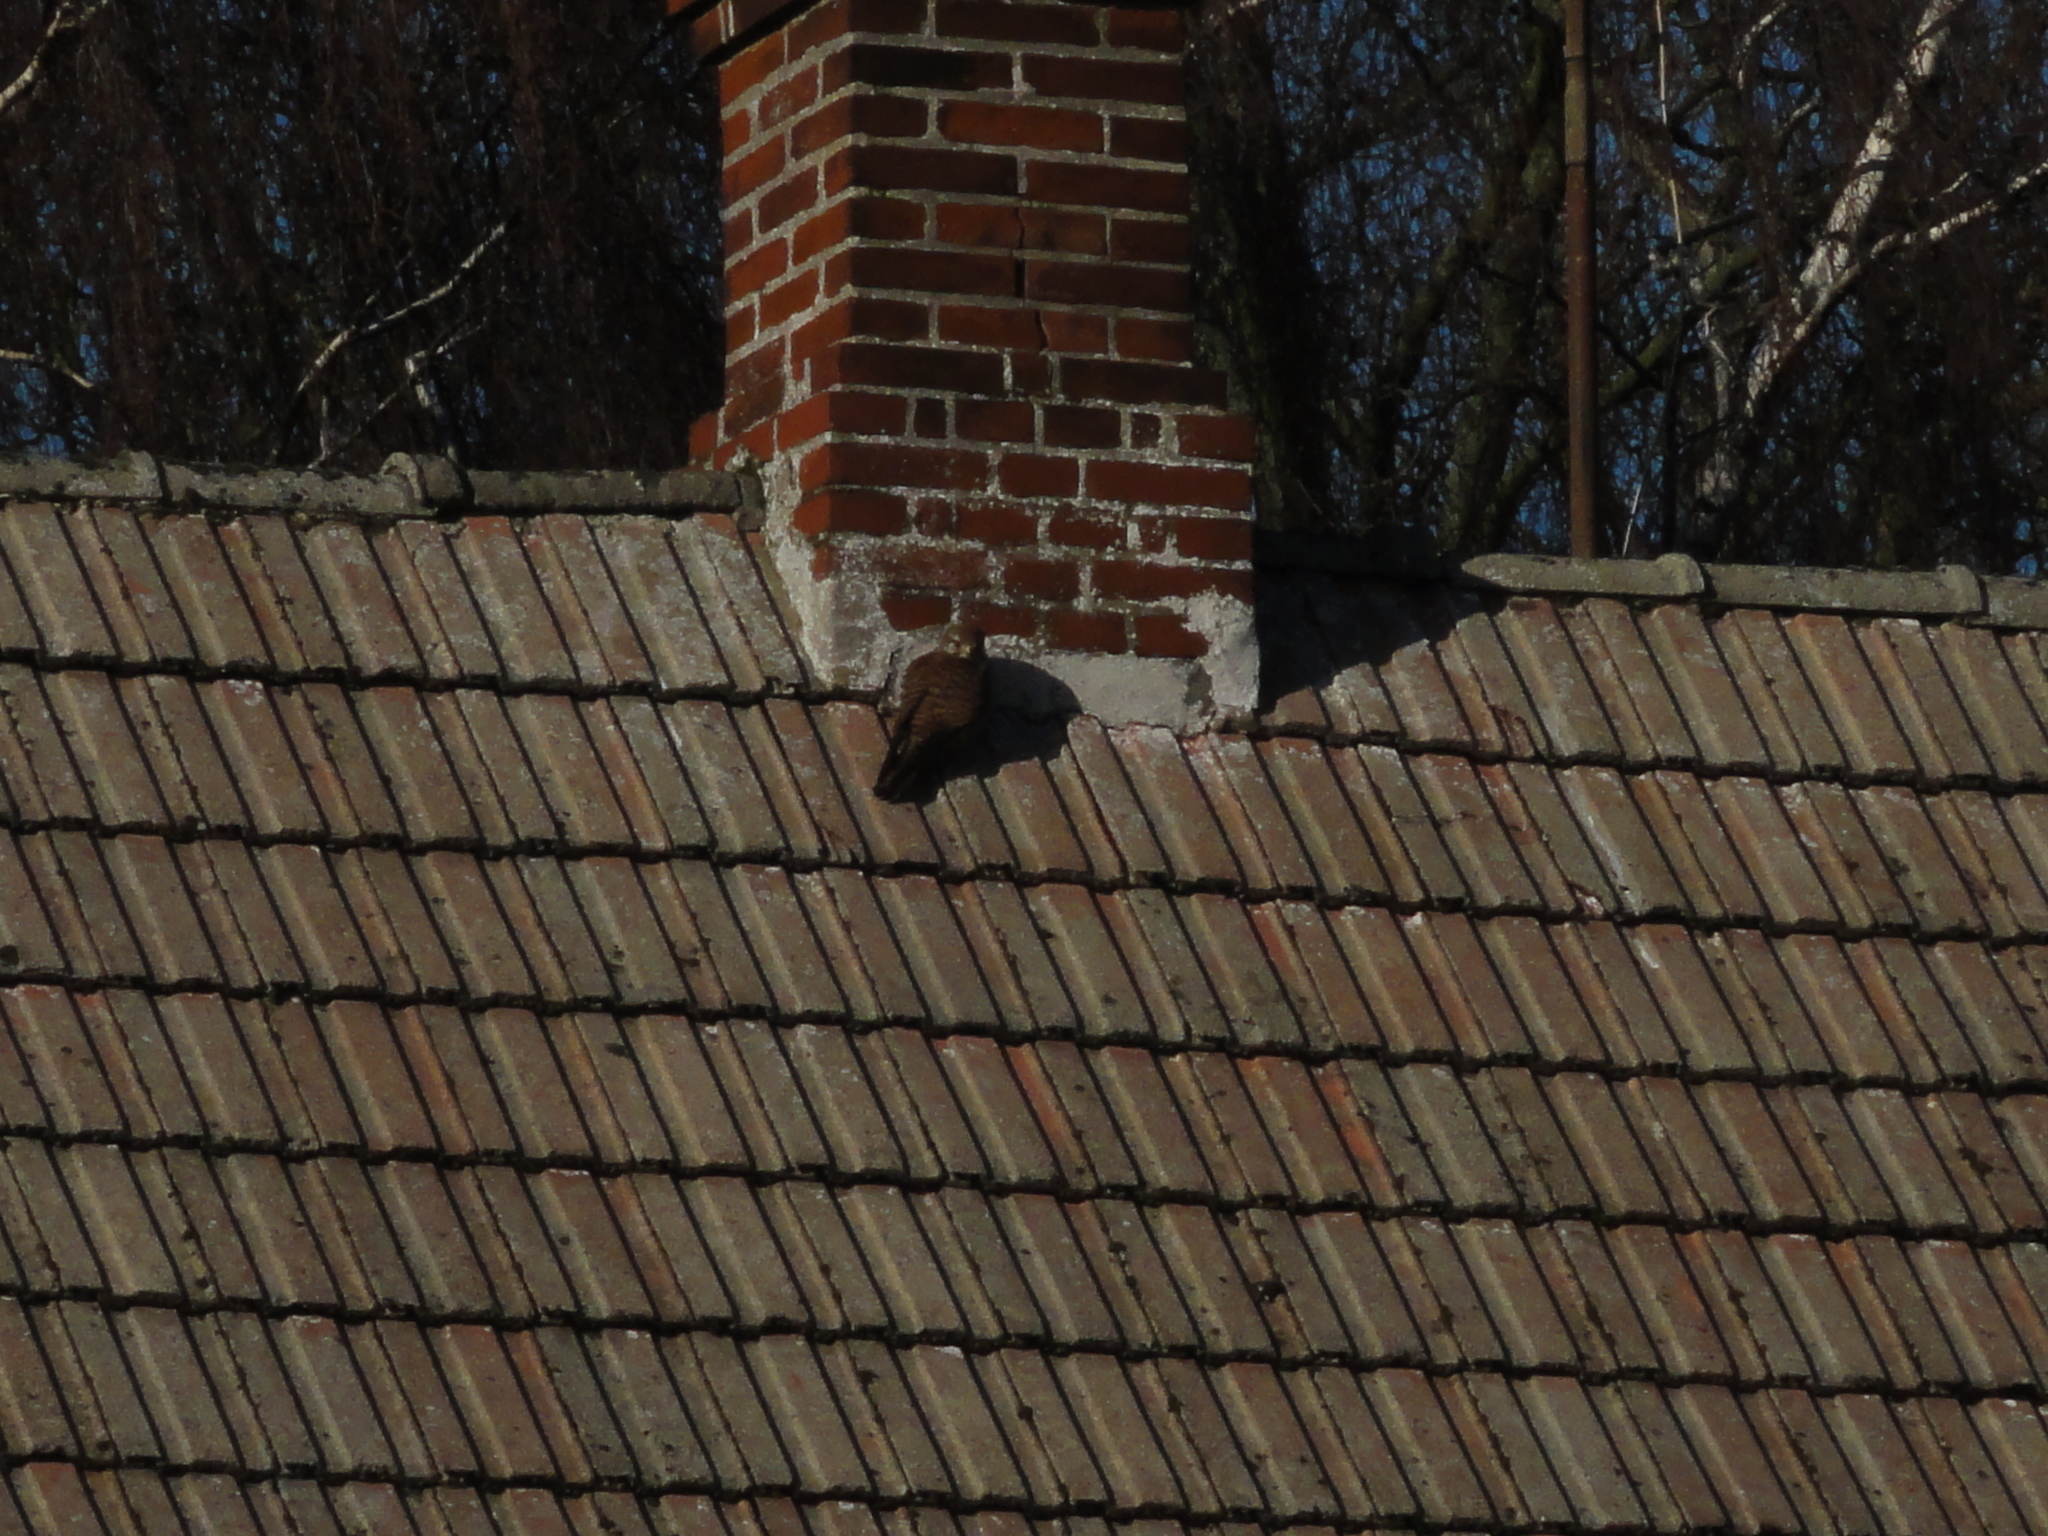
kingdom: Animalia
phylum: Chordata
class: Aves
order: Falconiformes
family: Falconidae
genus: Falco
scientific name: Falco tinnunculus
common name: Common kestrel
